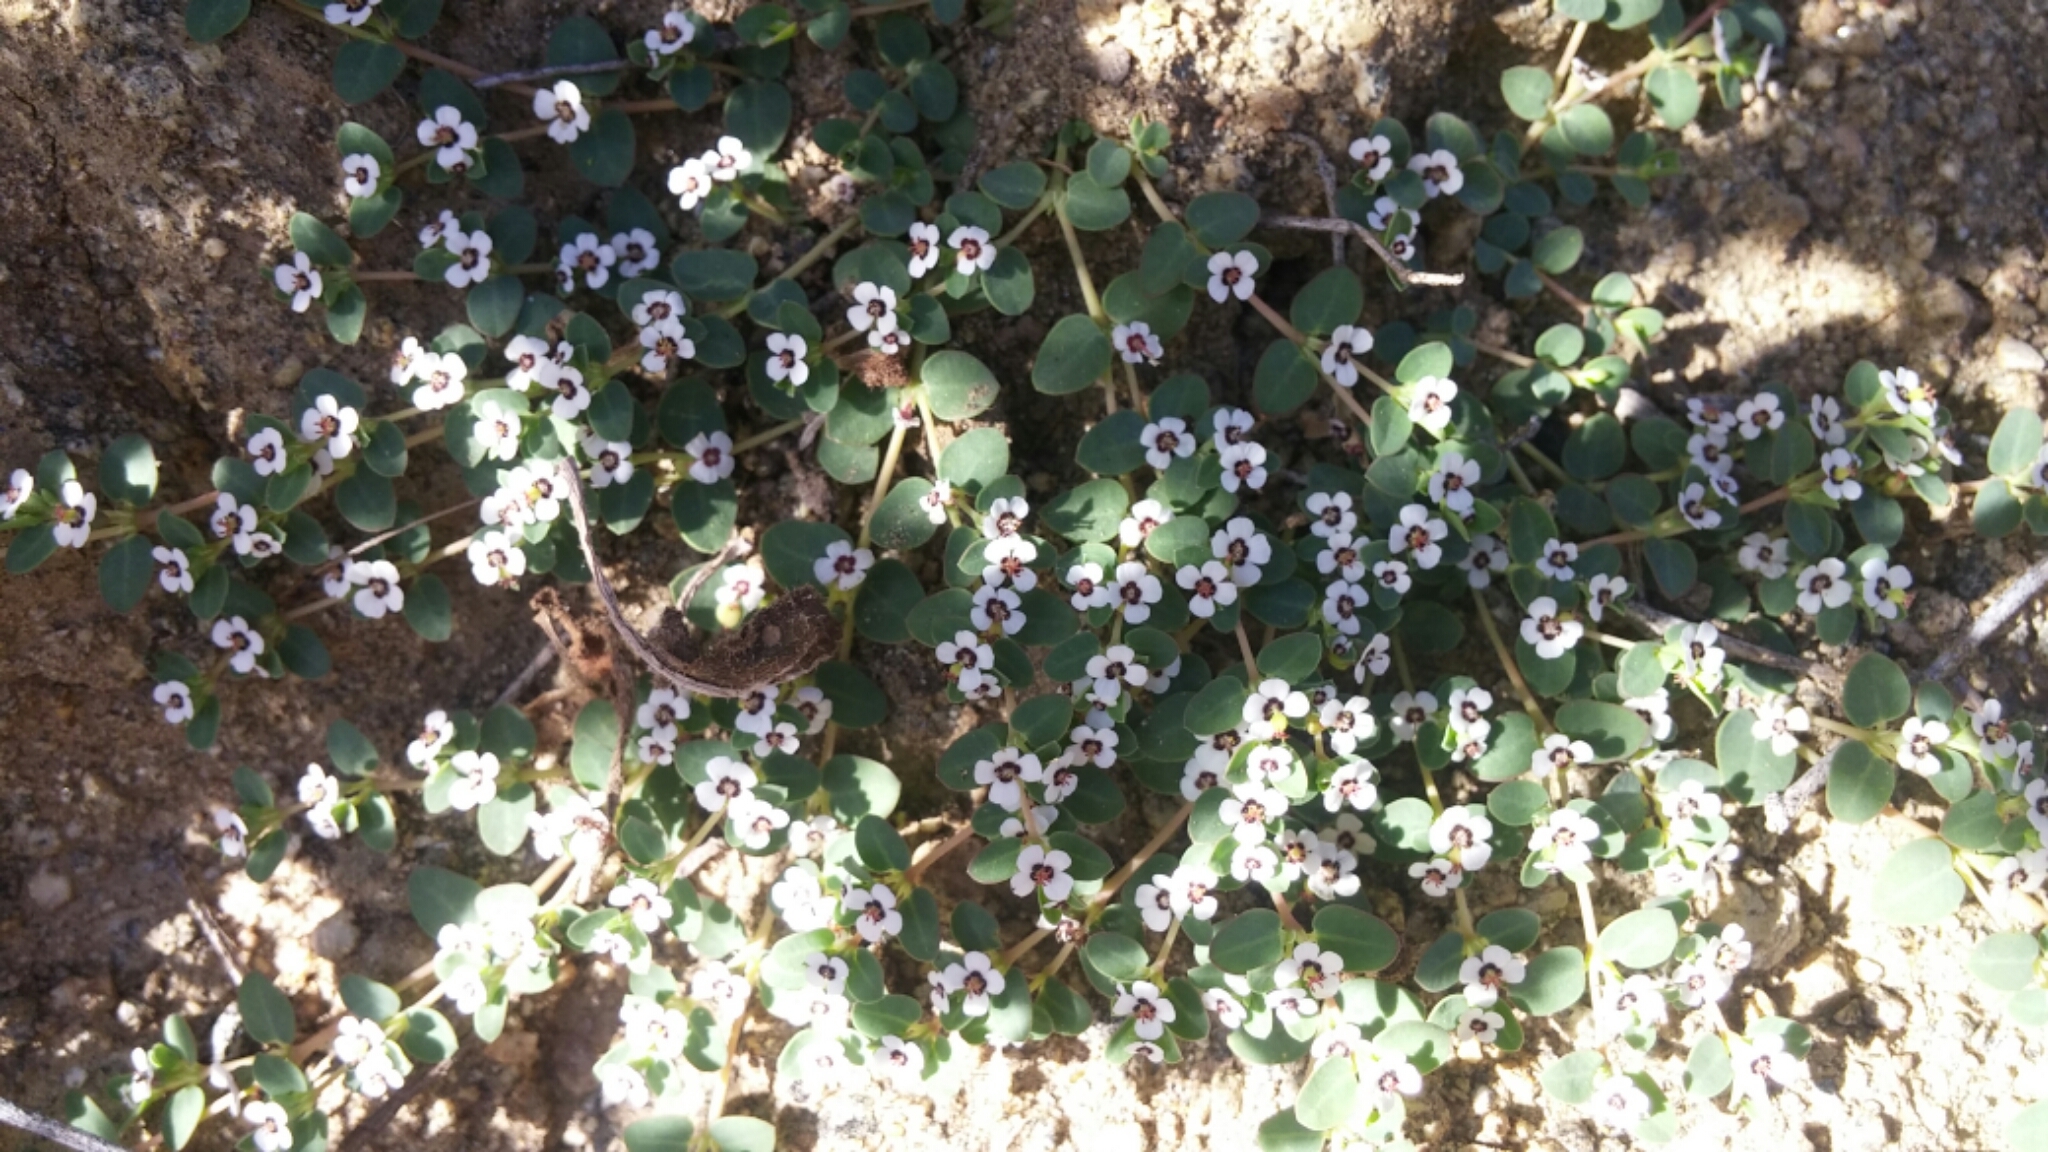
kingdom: Plantae
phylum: Tracheophyta
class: Magnoliopsida
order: Malpighiales
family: Euphorbiaceae
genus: Euphorbia
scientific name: Euphorbia polycarpa
